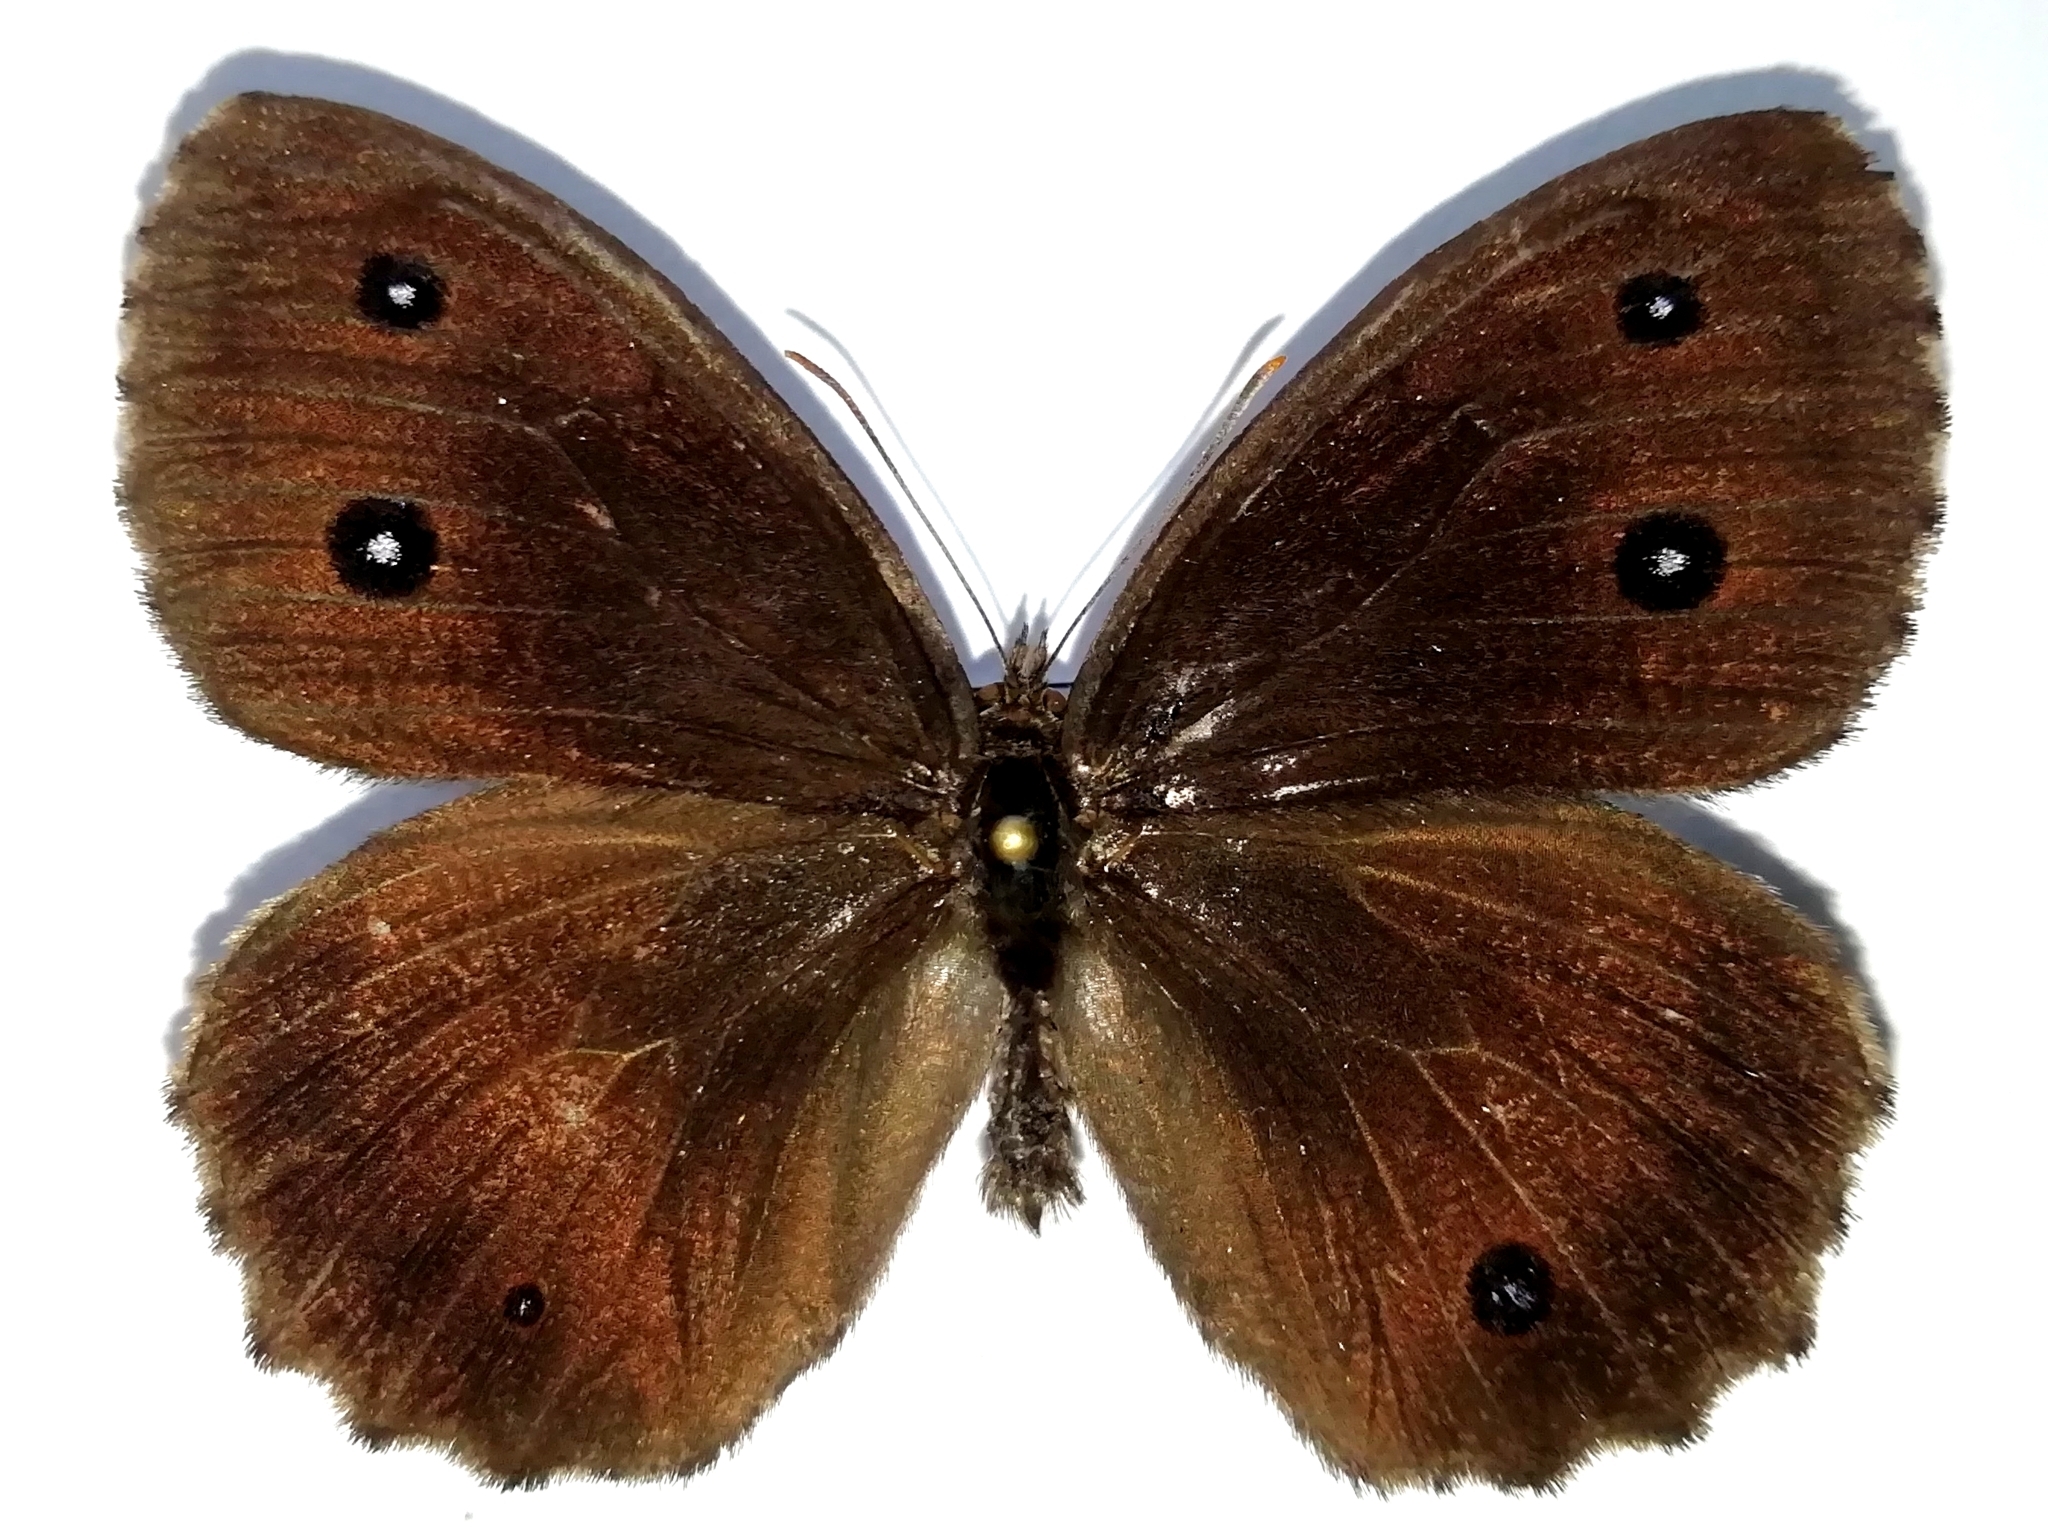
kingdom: Animalia
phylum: Arthropoda
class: Insecta
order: Lepidoptera
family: Nymphalidae
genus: Minois
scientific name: Minois dryas
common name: Dryad
